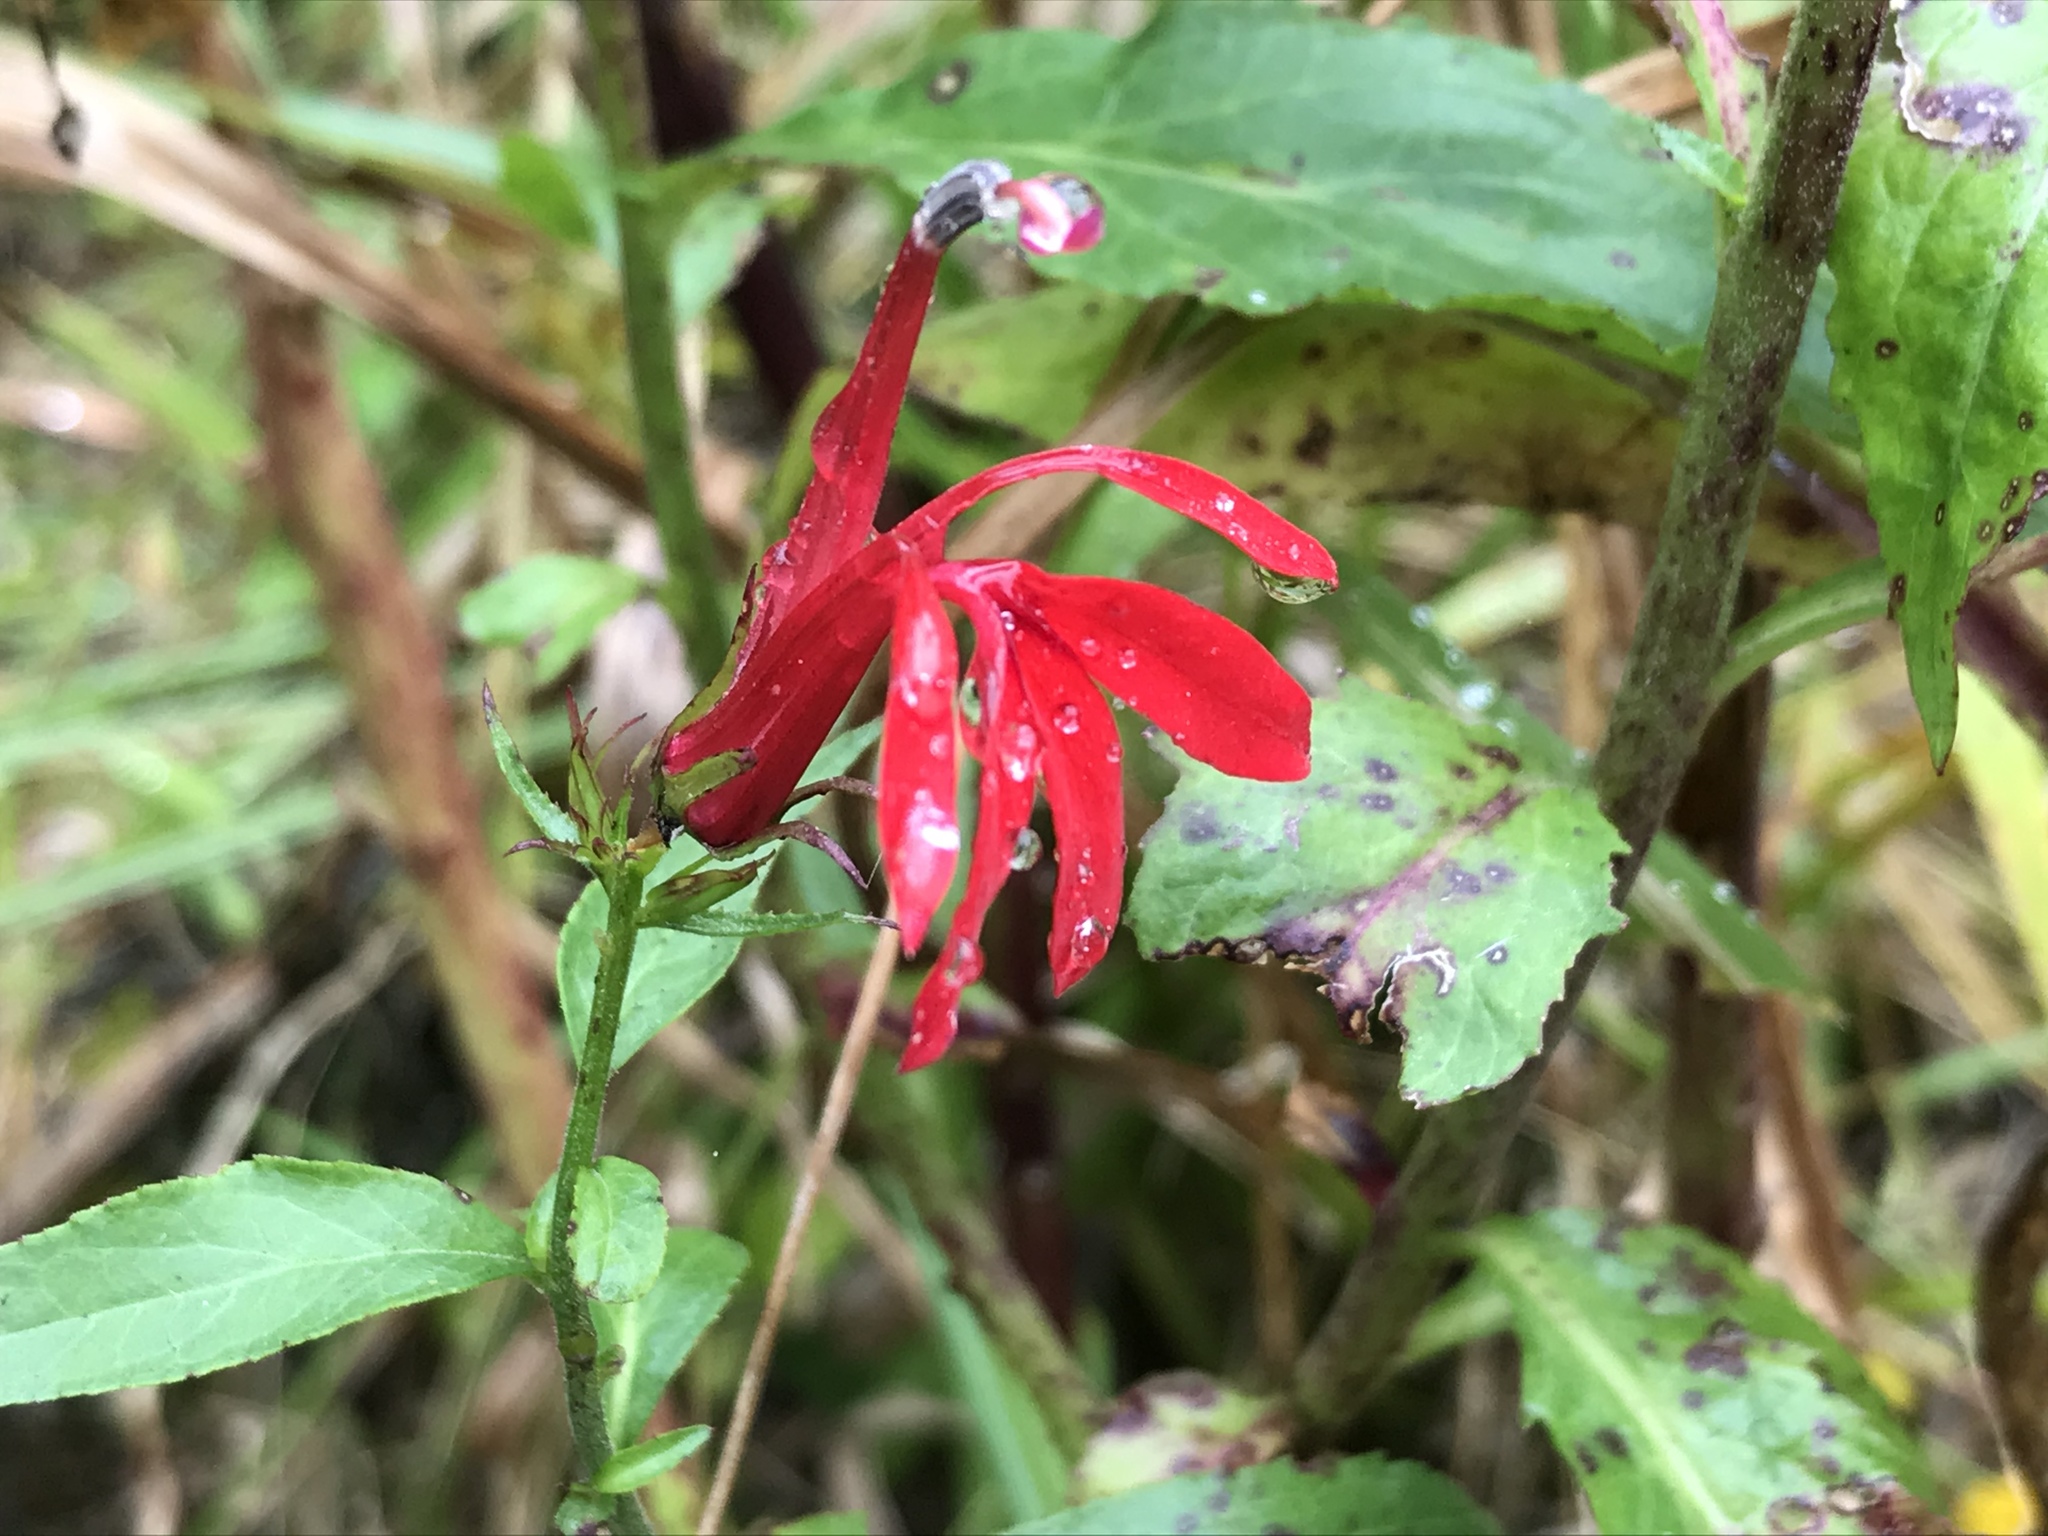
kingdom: Plantae
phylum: Tracheophyta
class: Magnoliopsida
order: Asterales
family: Campanulaceae
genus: Lobelia
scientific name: Lobelia cardinalis
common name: Cardinal flower
